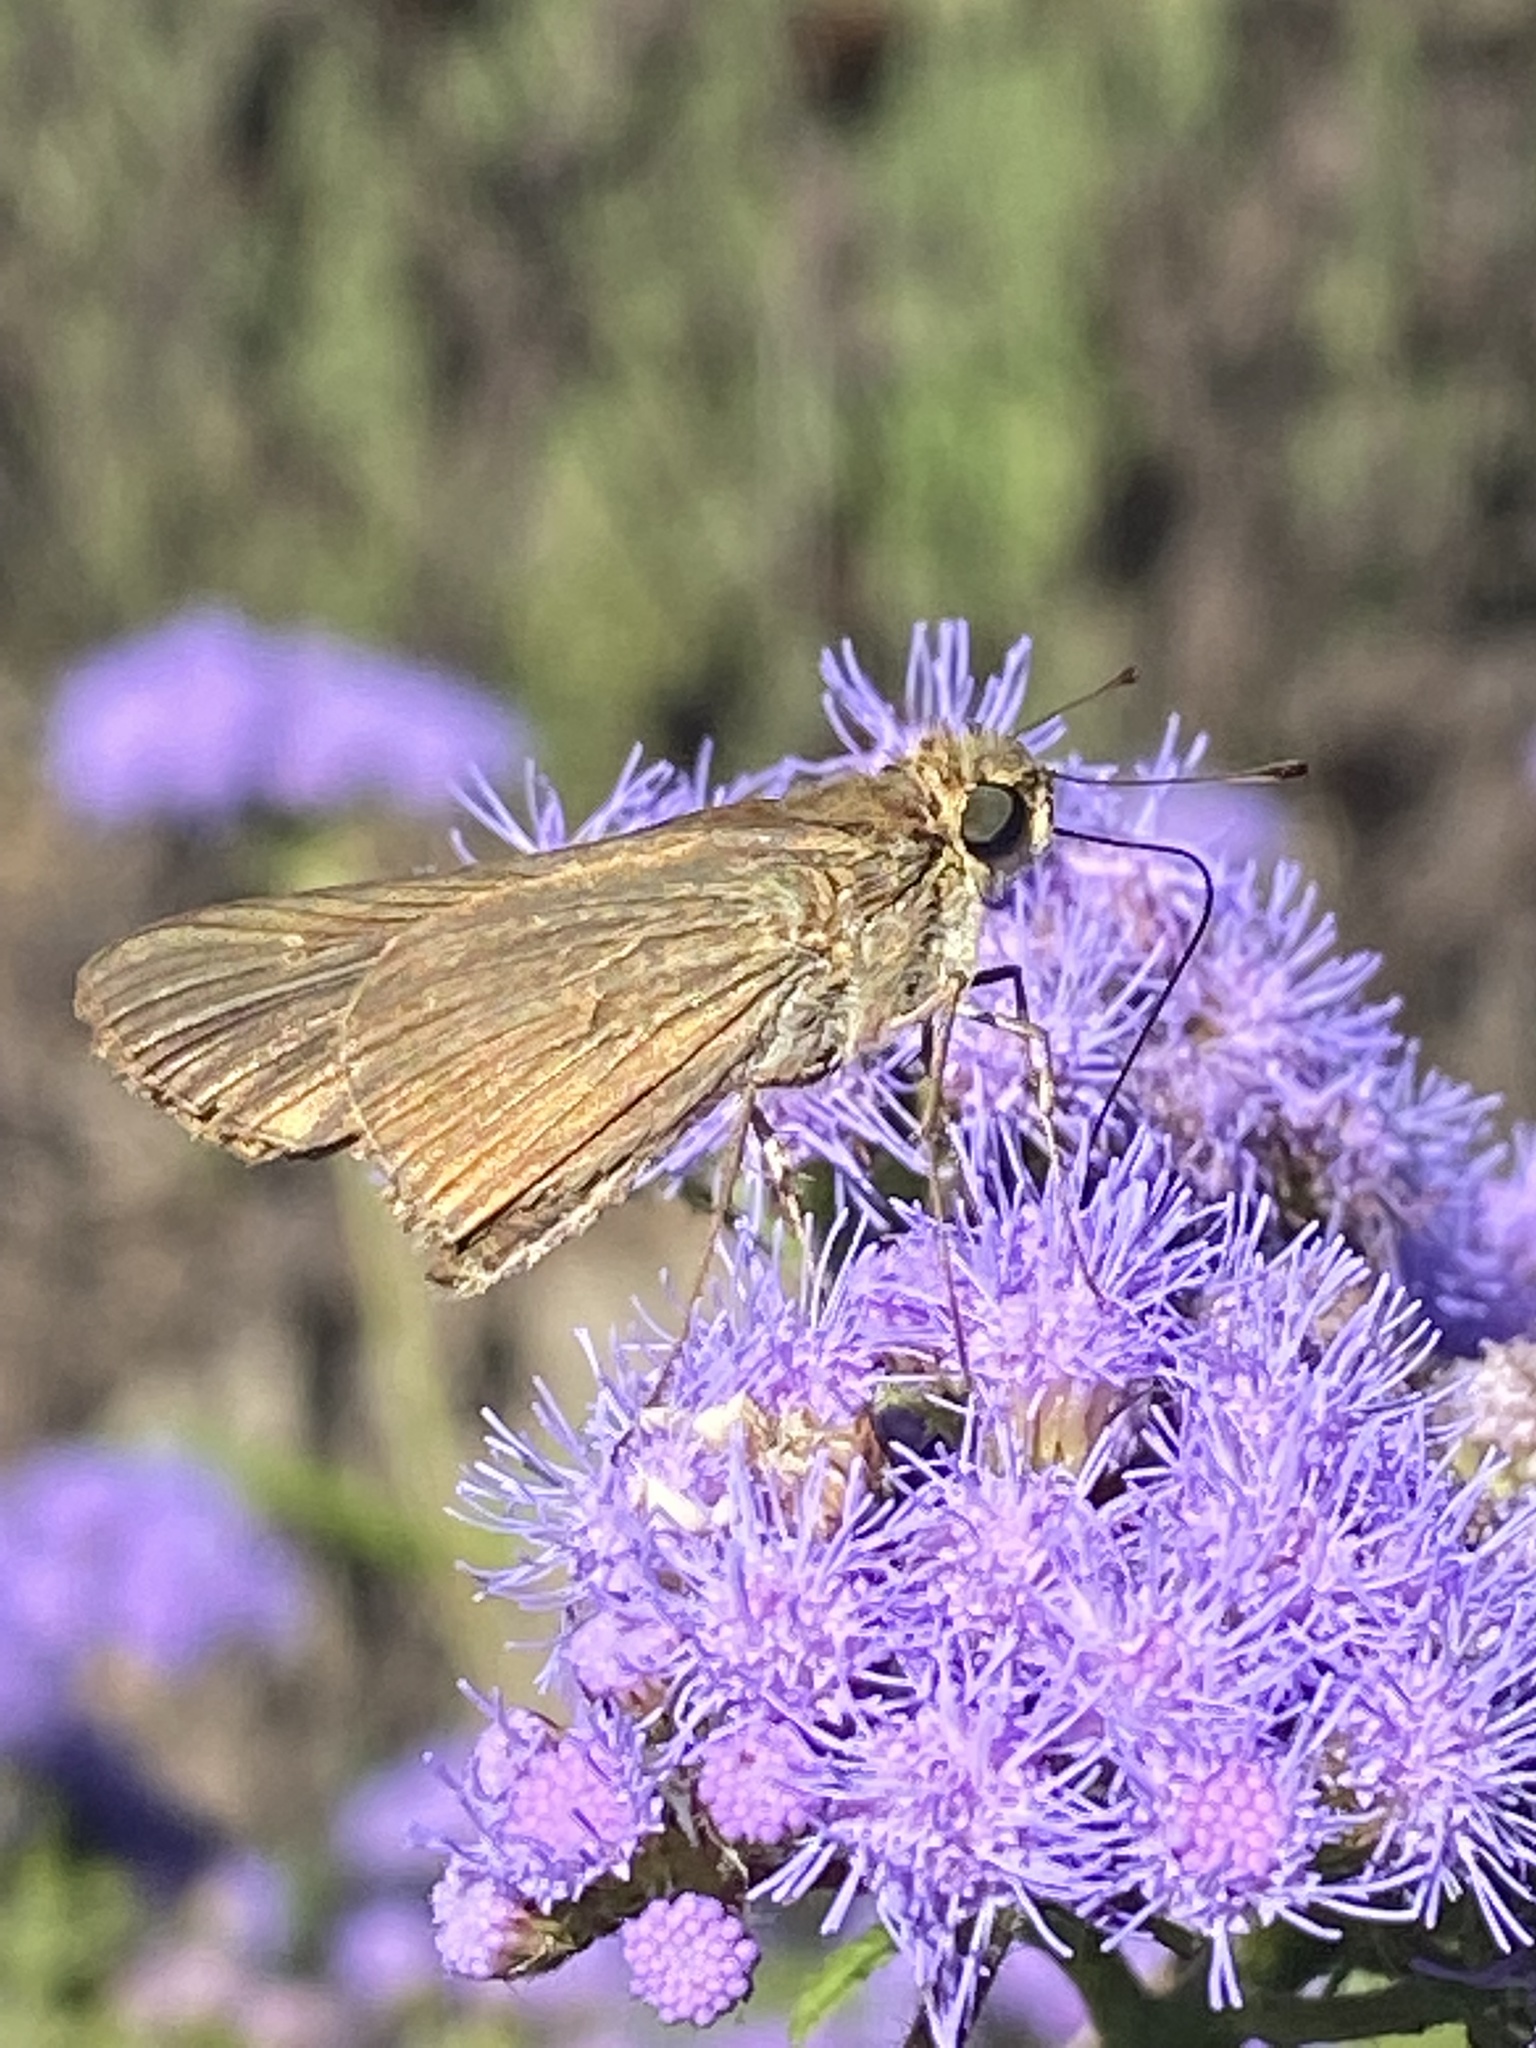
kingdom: Animalia
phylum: Arthropoda
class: Insecta
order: Lepidoptera
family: Hesperiidae
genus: Panoquina
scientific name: Panoquina ocola
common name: Ocola skipper
